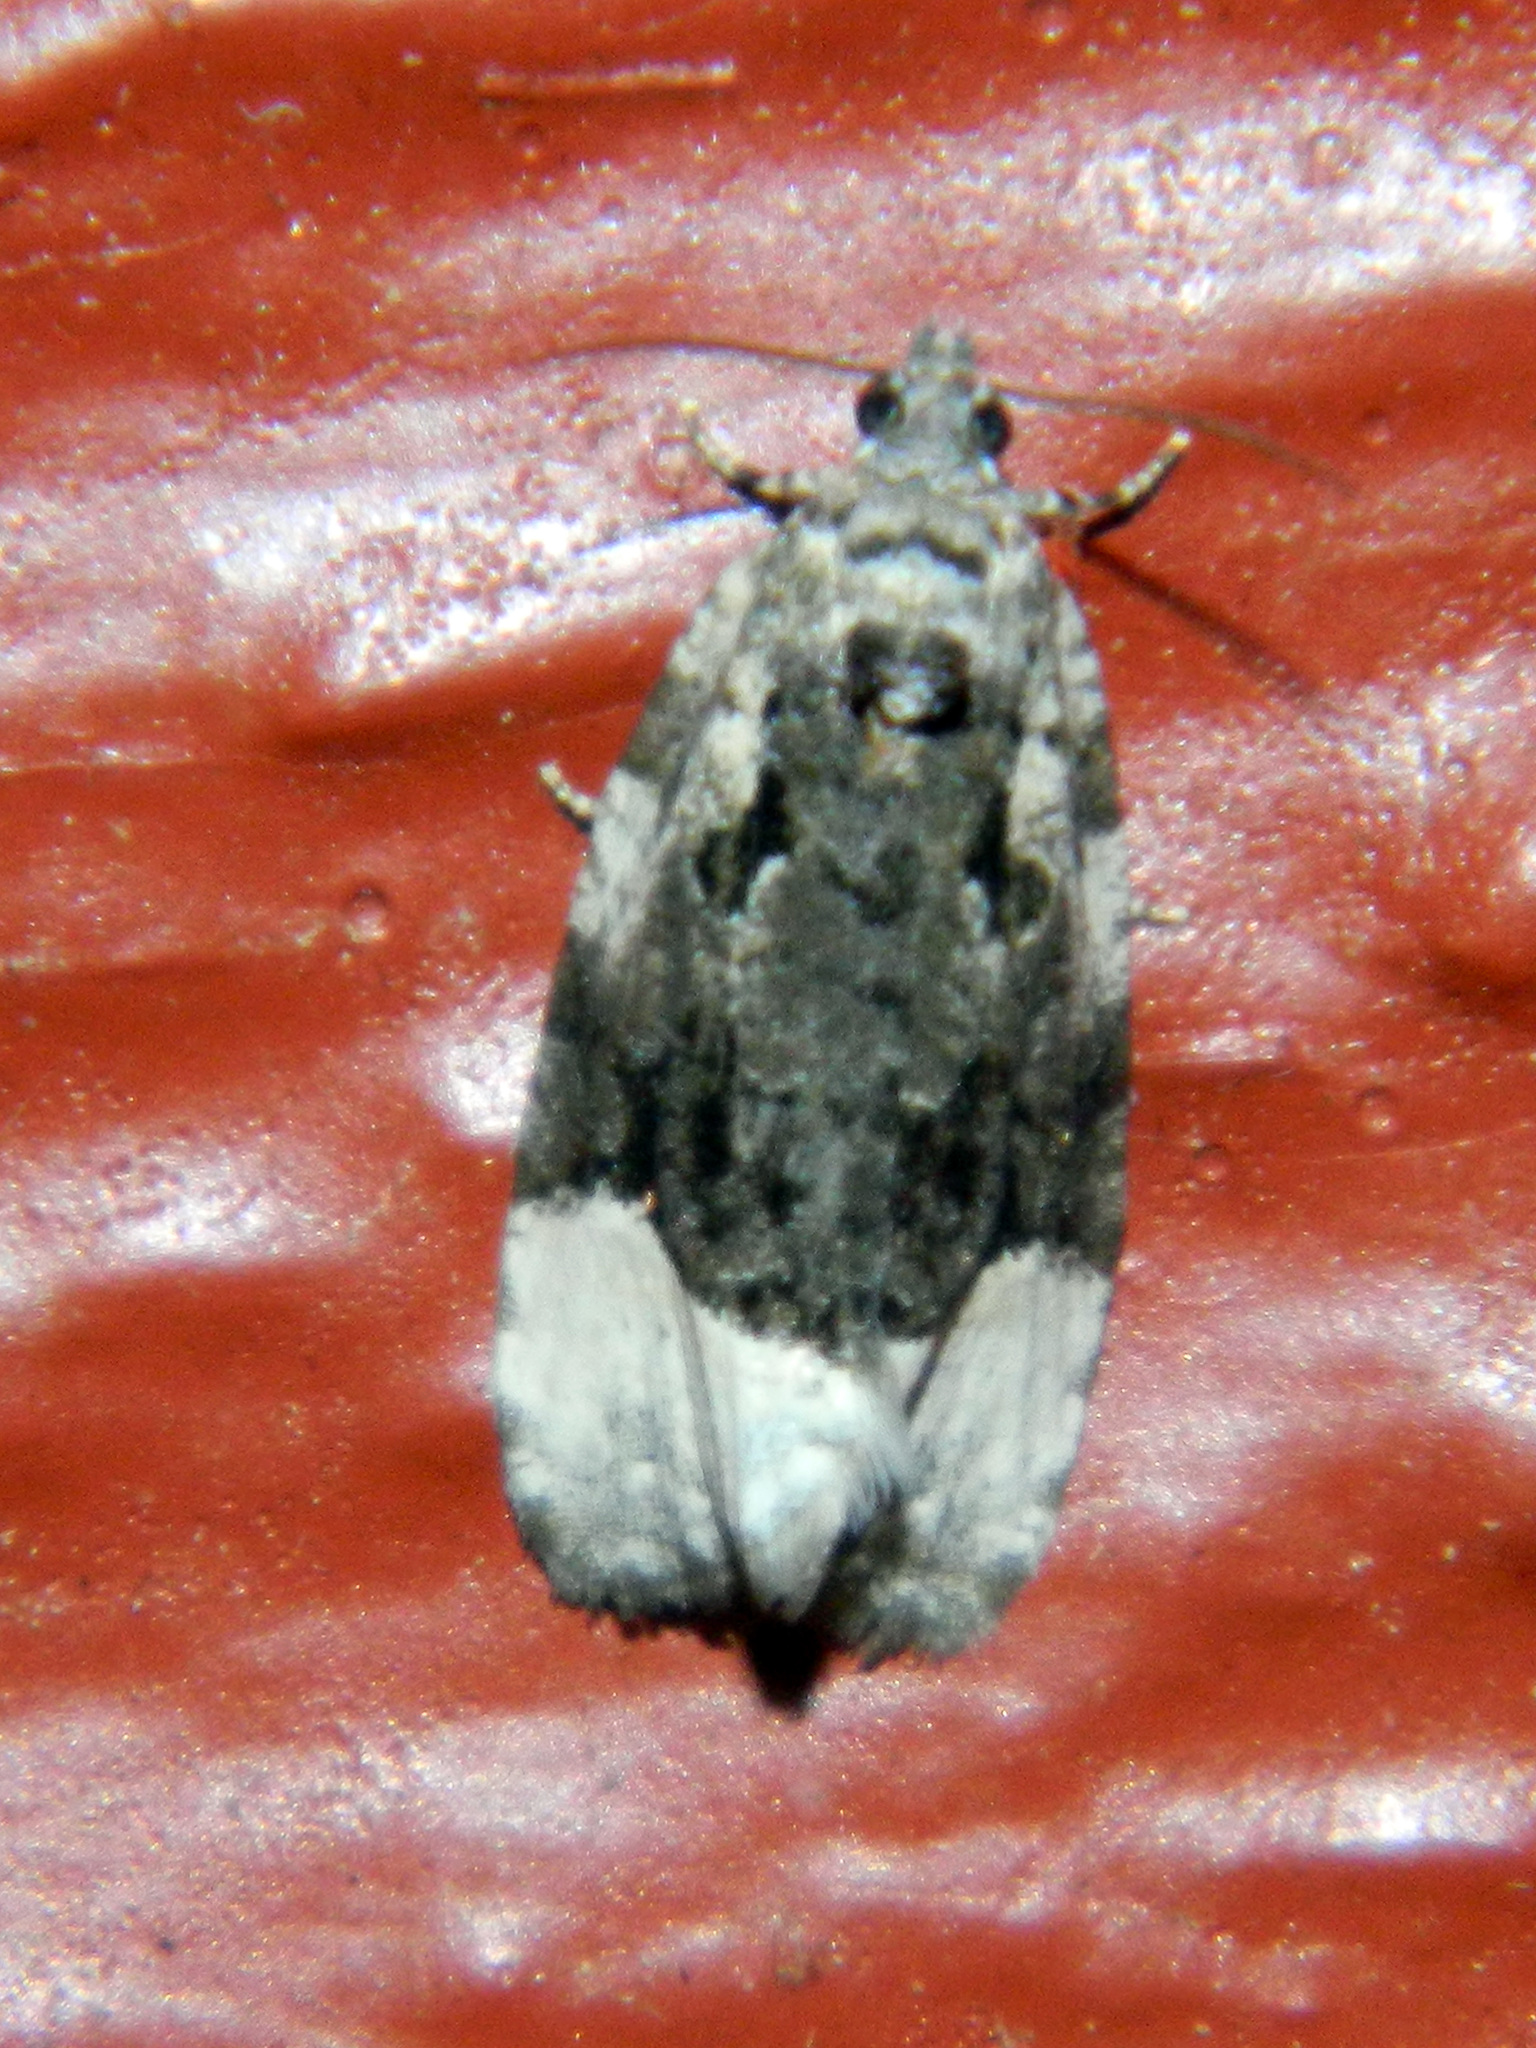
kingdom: Animalia
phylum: Arthropoda
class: Insecta
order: Lepidoptera
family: Tortricidae
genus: Apotomis
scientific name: Apotomis funerea
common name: Funereal apotomis moth
